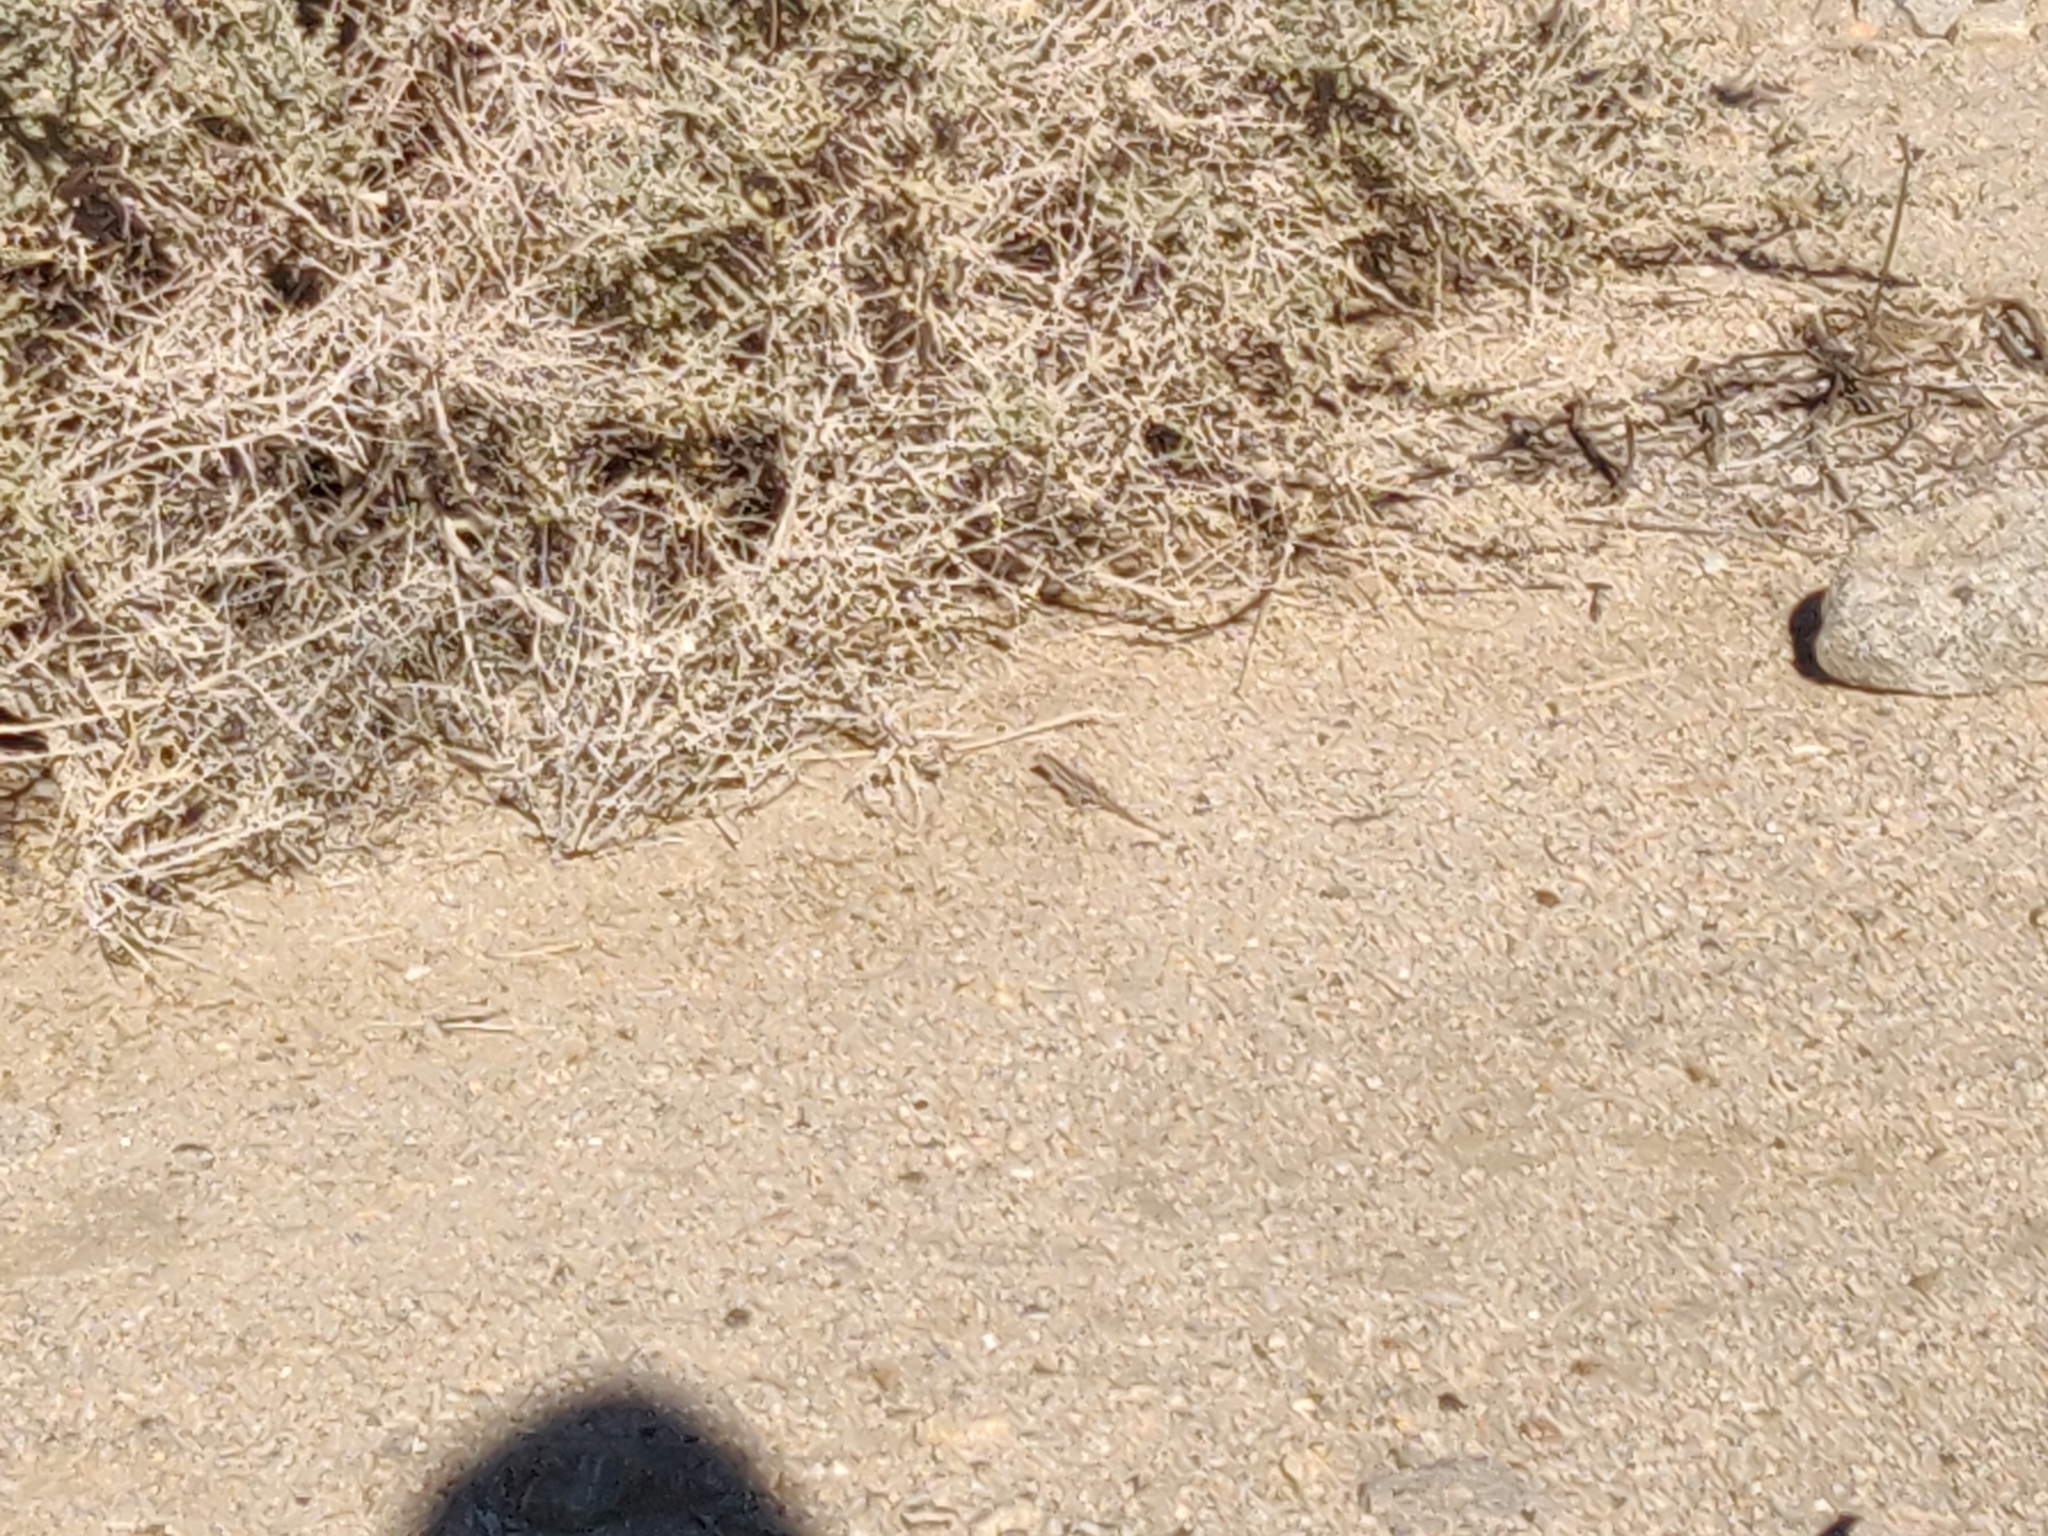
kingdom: Animalia
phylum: Chordata
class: Squamata
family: Phrynosomatidae
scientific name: Phrynosomatidae
